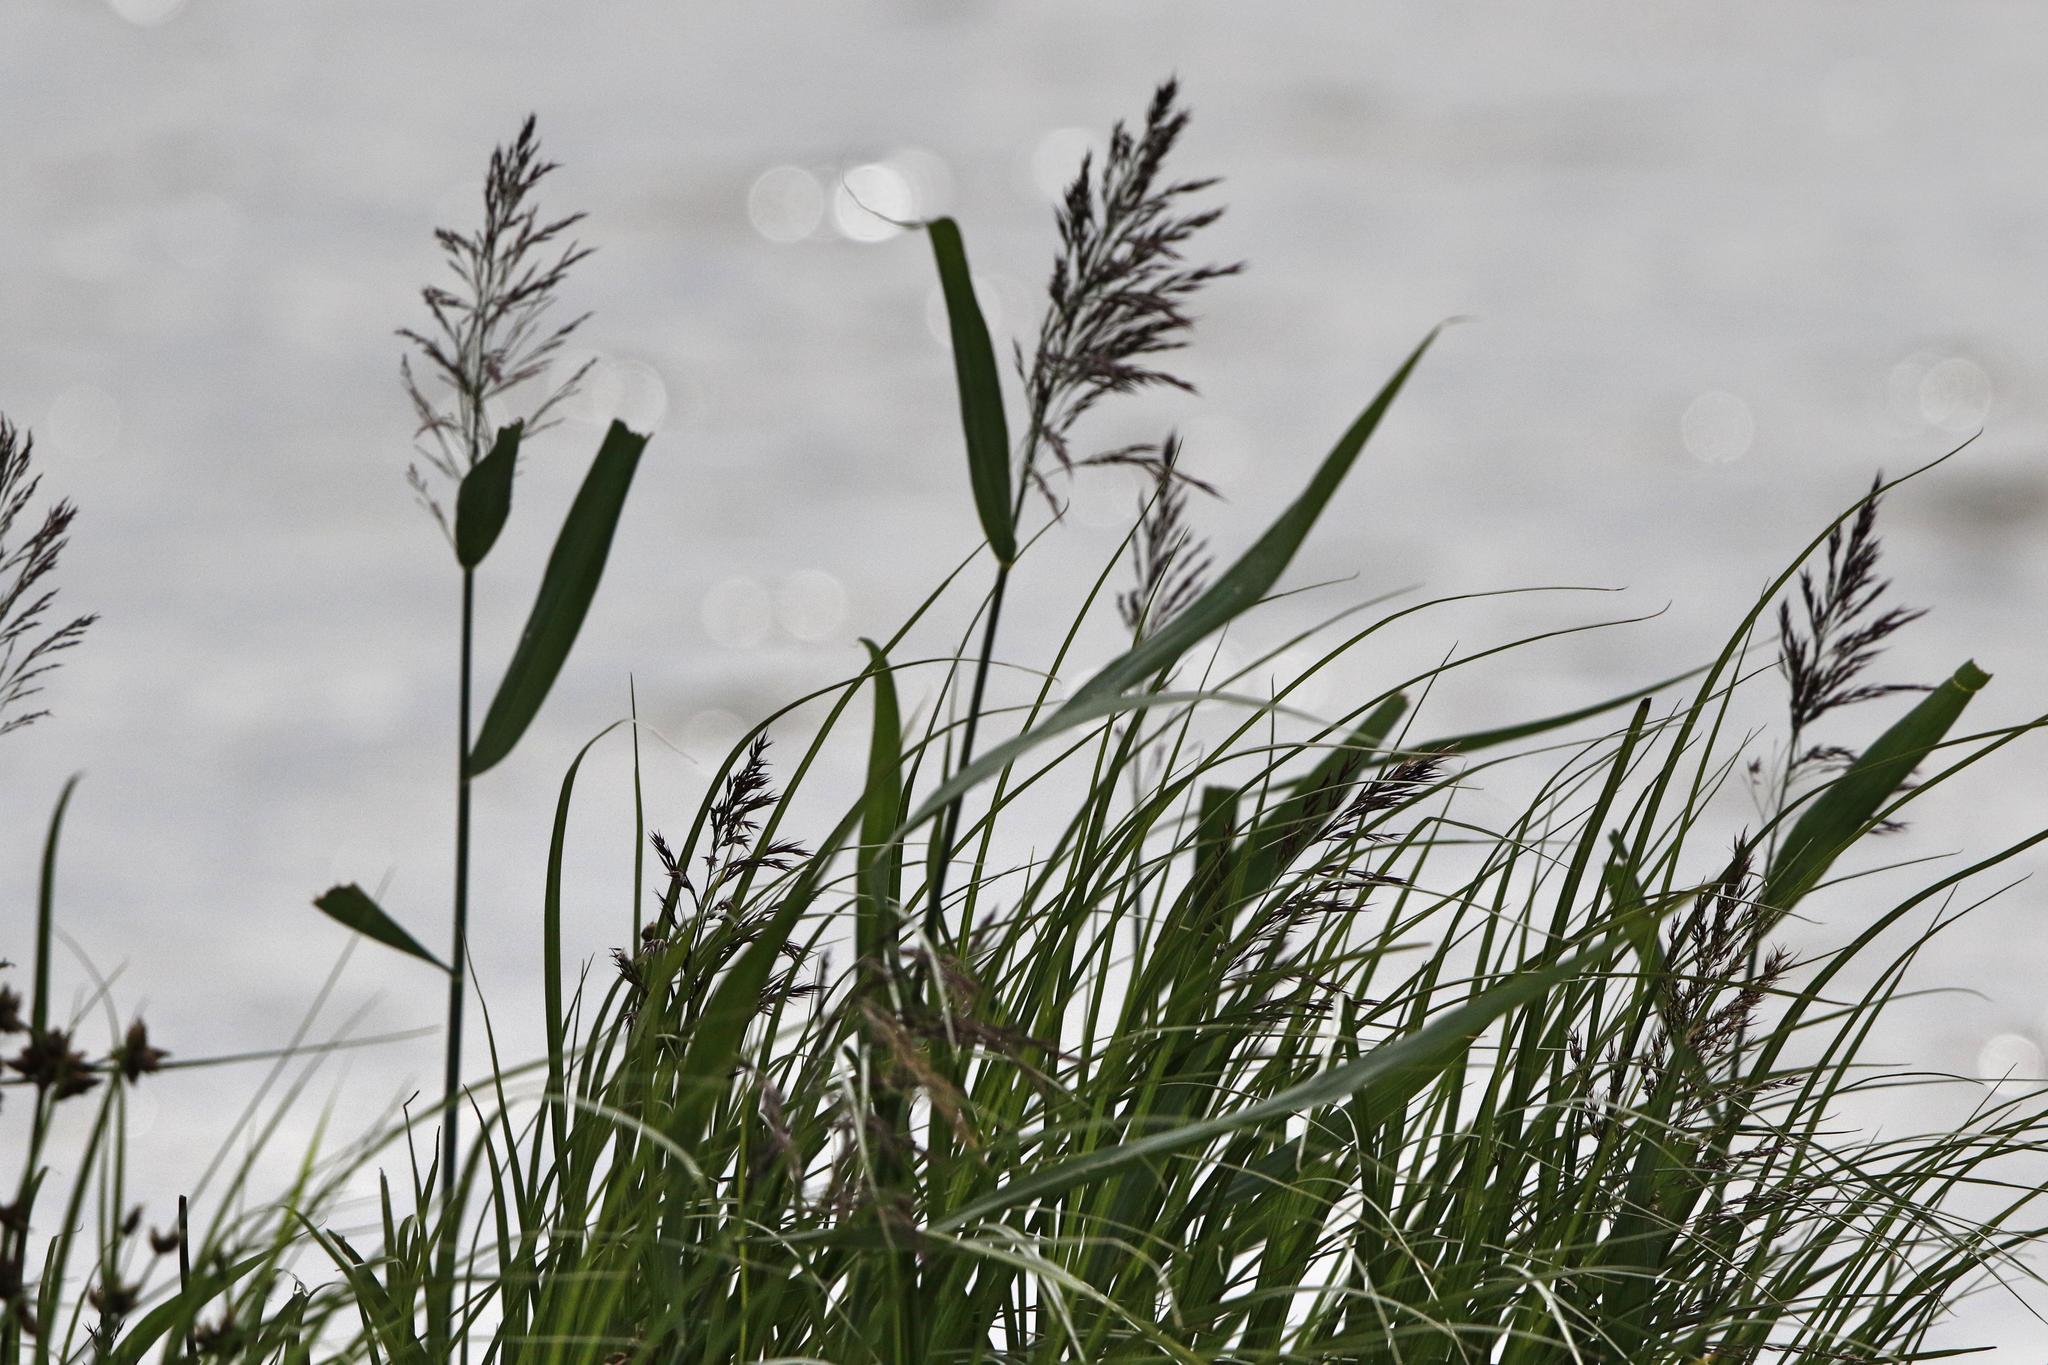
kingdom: Plantae
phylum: Tracheophyta
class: Liliopsida
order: Poales
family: Poaceae
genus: Phragmites
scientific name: Phragmites australis
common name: Common reed
